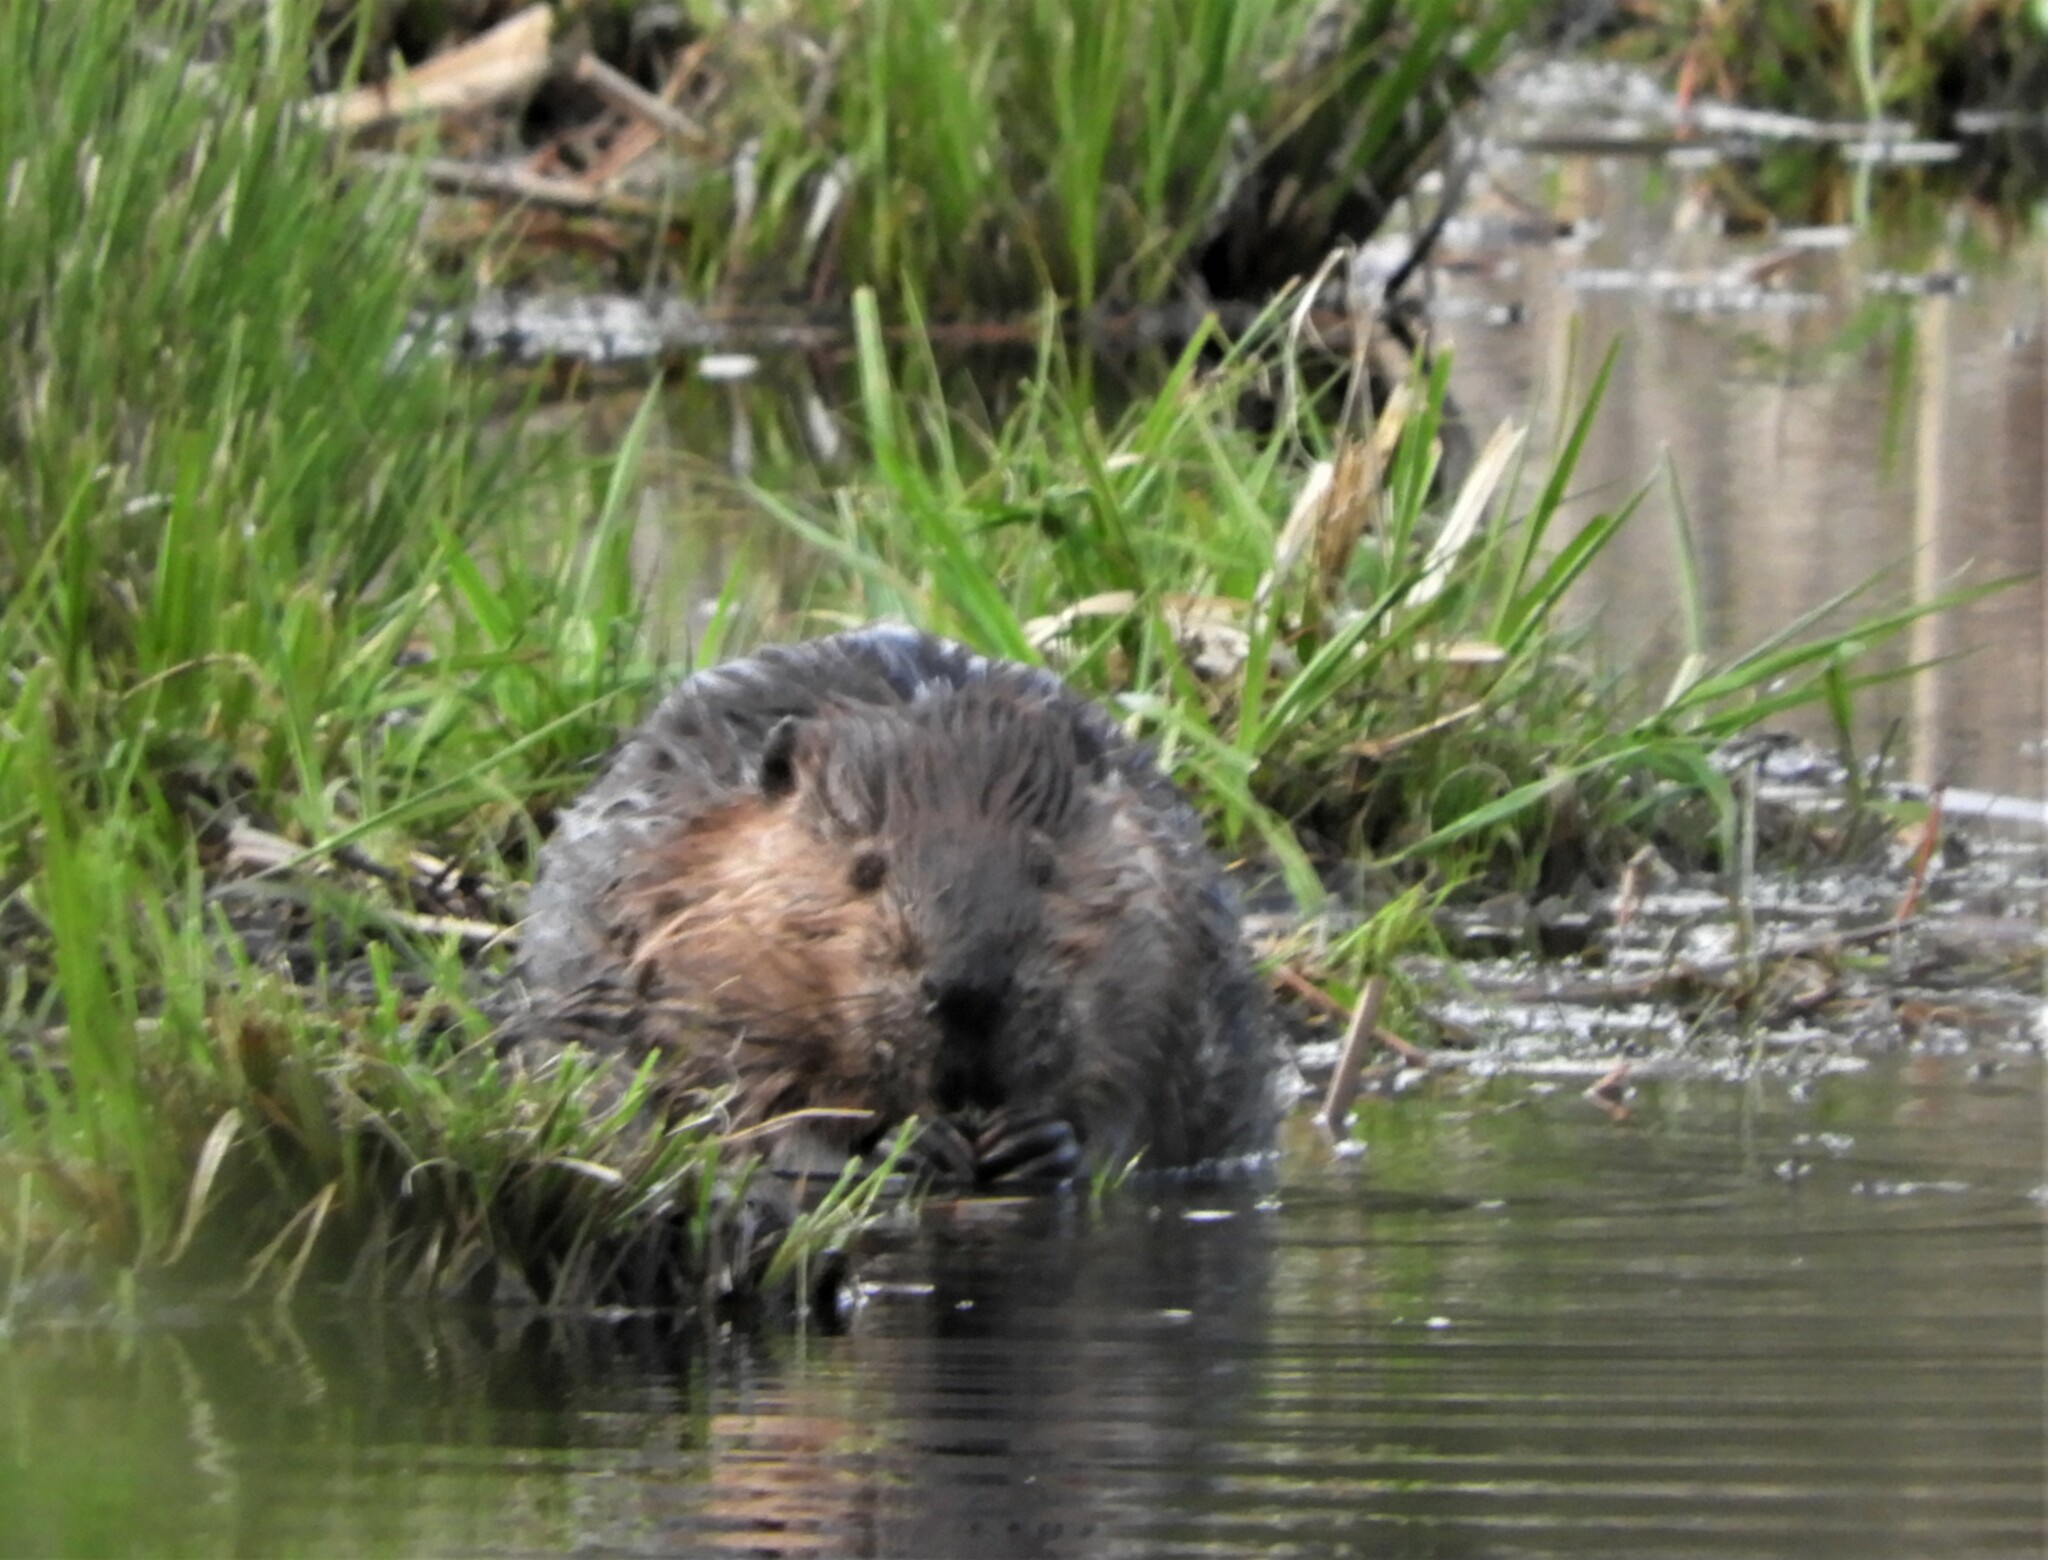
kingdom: Animalia
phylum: Chordata
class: Mammalia
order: Rodentia
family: Castoridae
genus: Castor
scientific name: Castor canadensis
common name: American beaver
